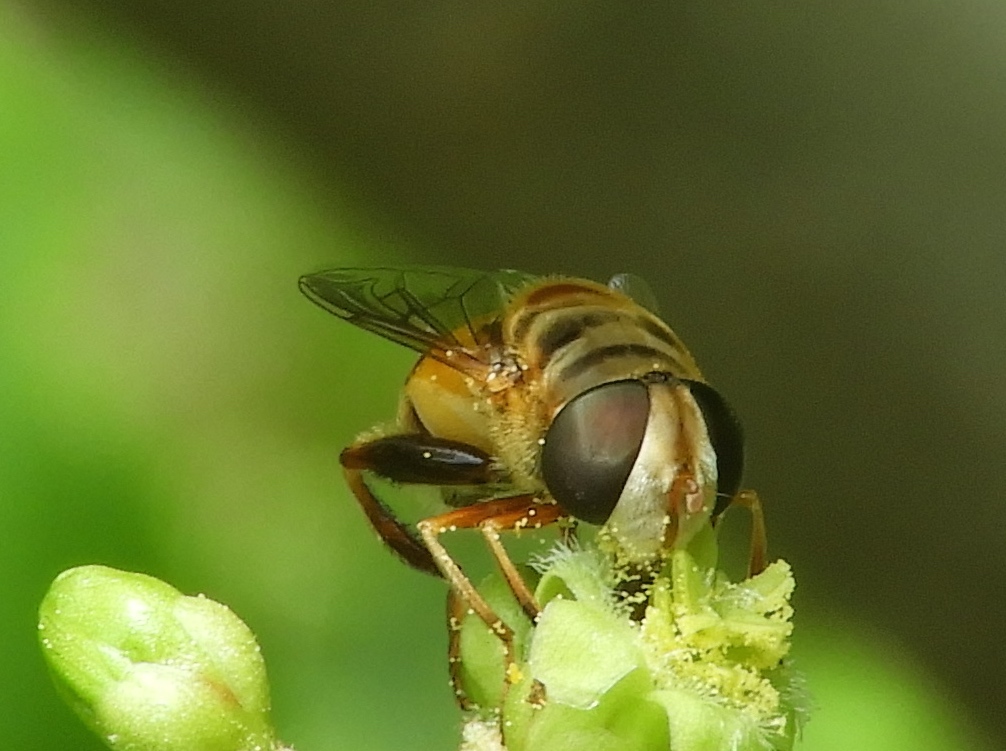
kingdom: Animalia
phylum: Arthropoda
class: Insecta
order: Diptera
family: Syrphidae
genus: Palpada
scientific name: Palpada
